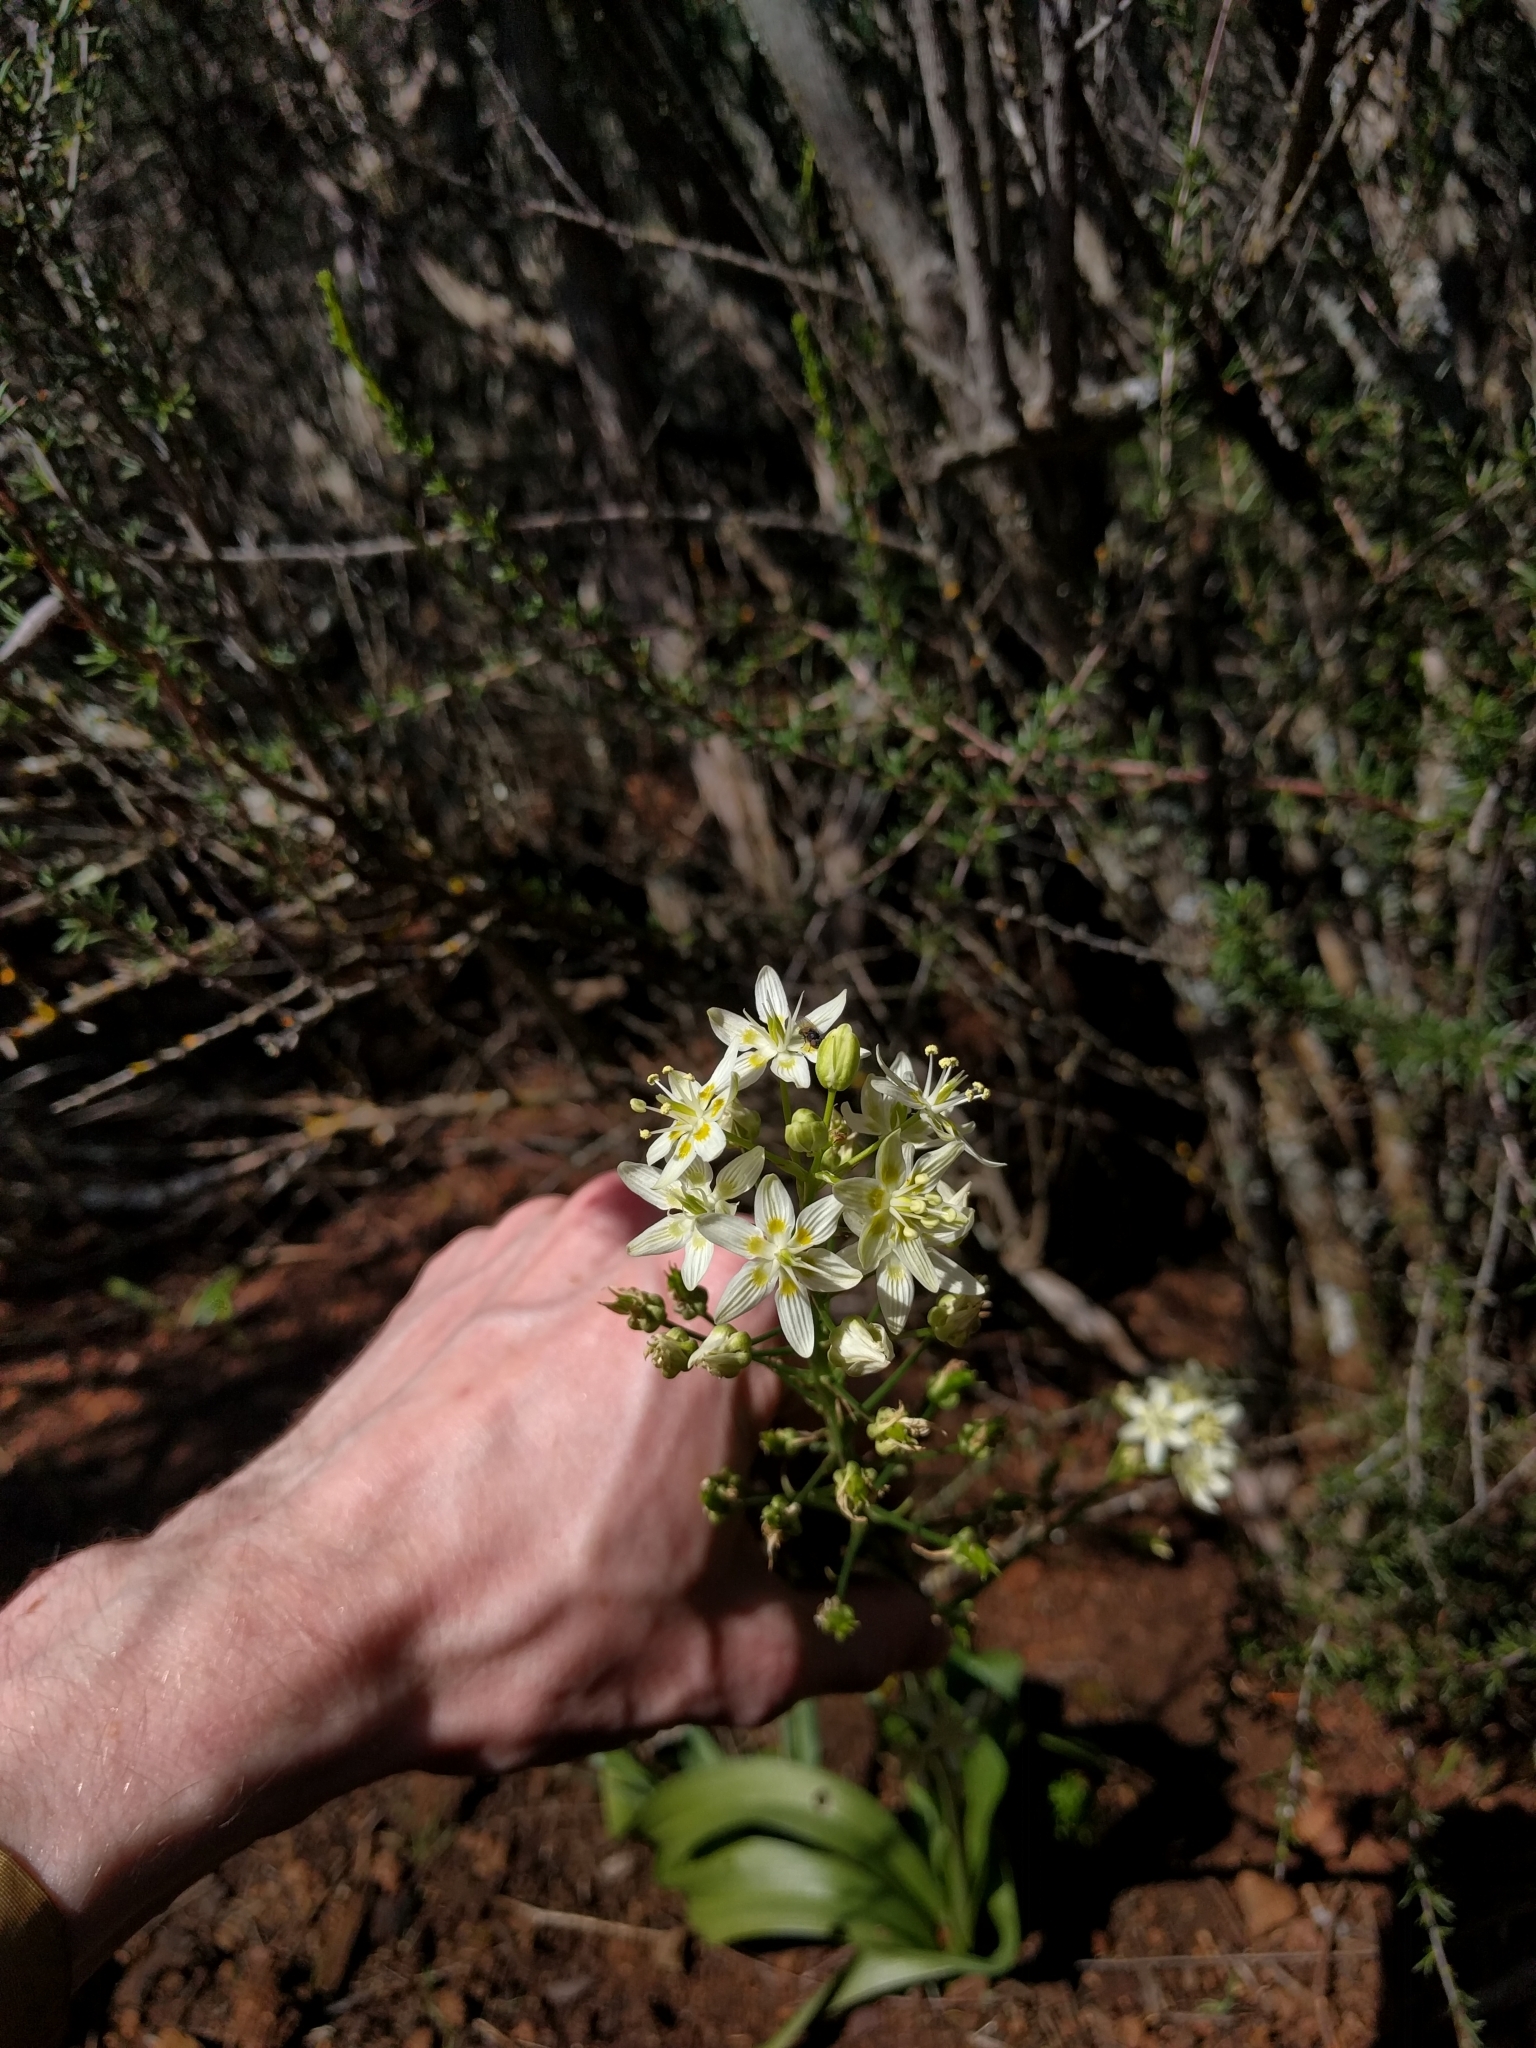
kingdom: Plantae
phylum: Tracheophyta
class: Liliopsida
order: Liliales
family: Melanthiaceae
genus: Toxicoscordion
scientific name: Toxicoscordion fremontii
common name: Fremont's death camas
